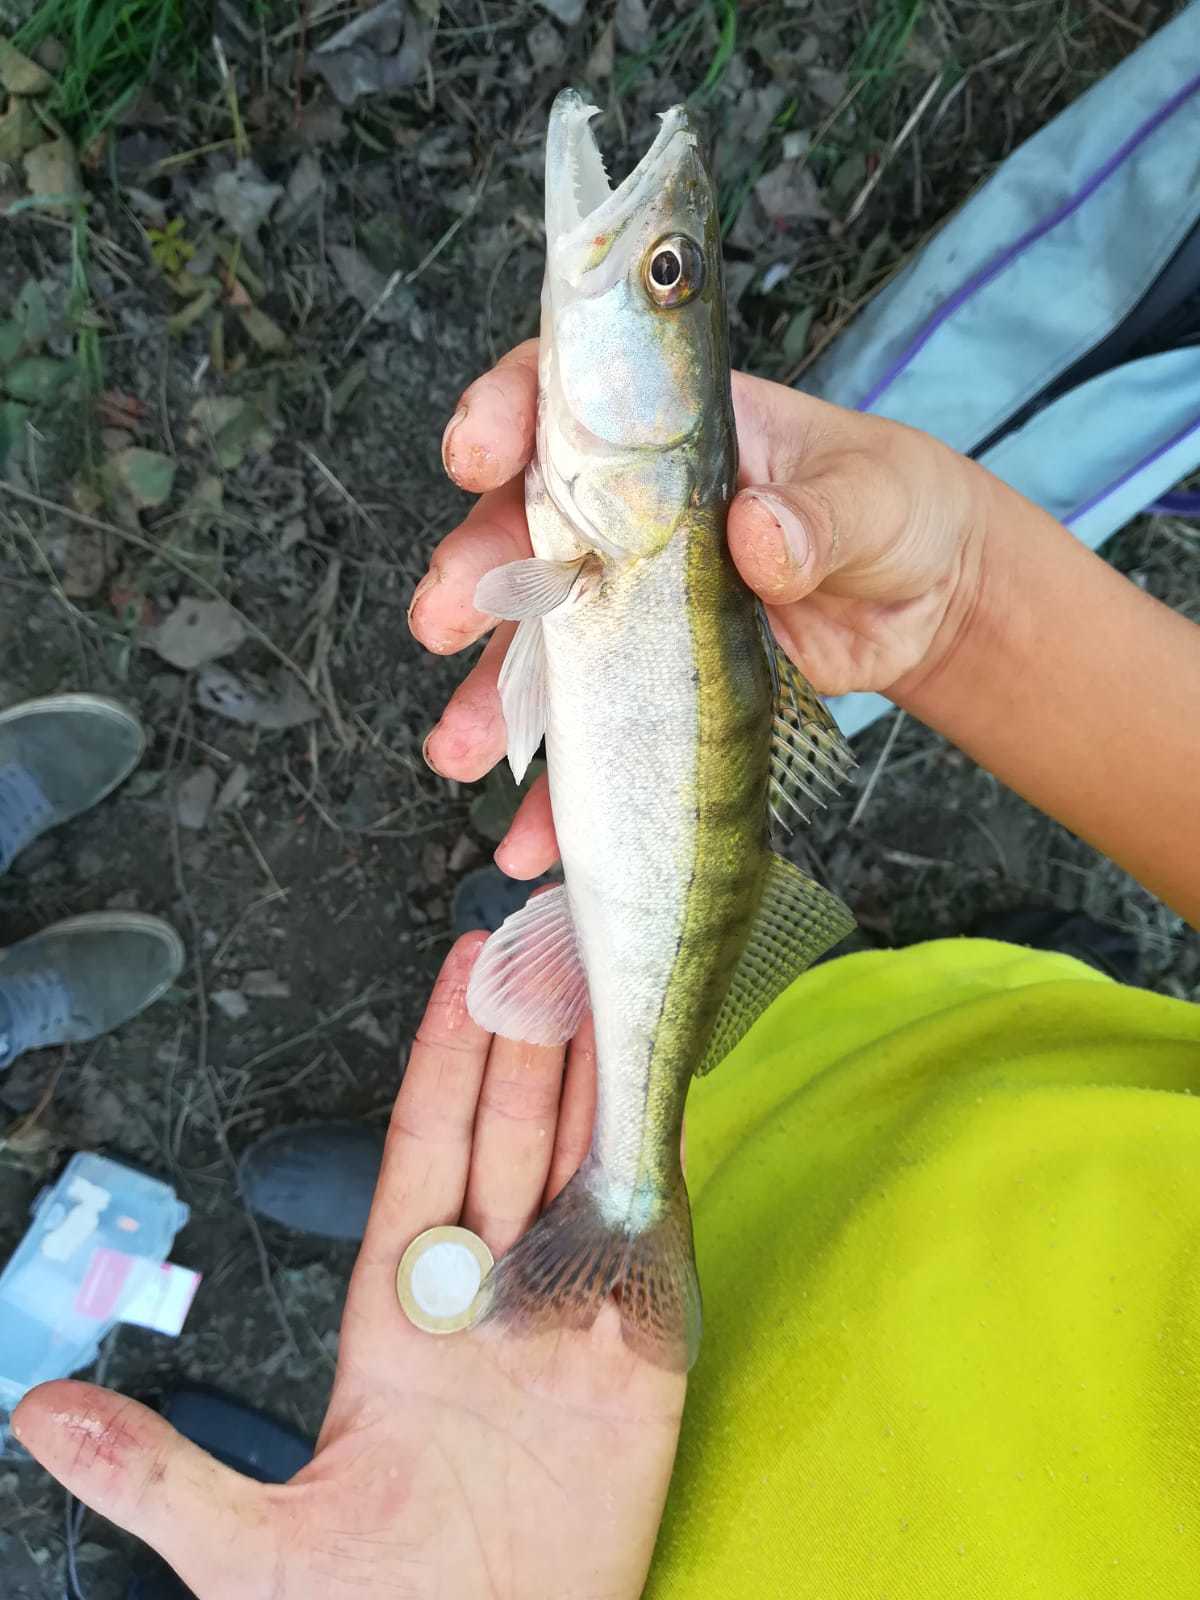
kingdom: Animalia
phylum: Chordata
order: Perciformes
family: Percidae
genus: Sander
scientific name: Sander lucioperca
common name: Pikeperch
